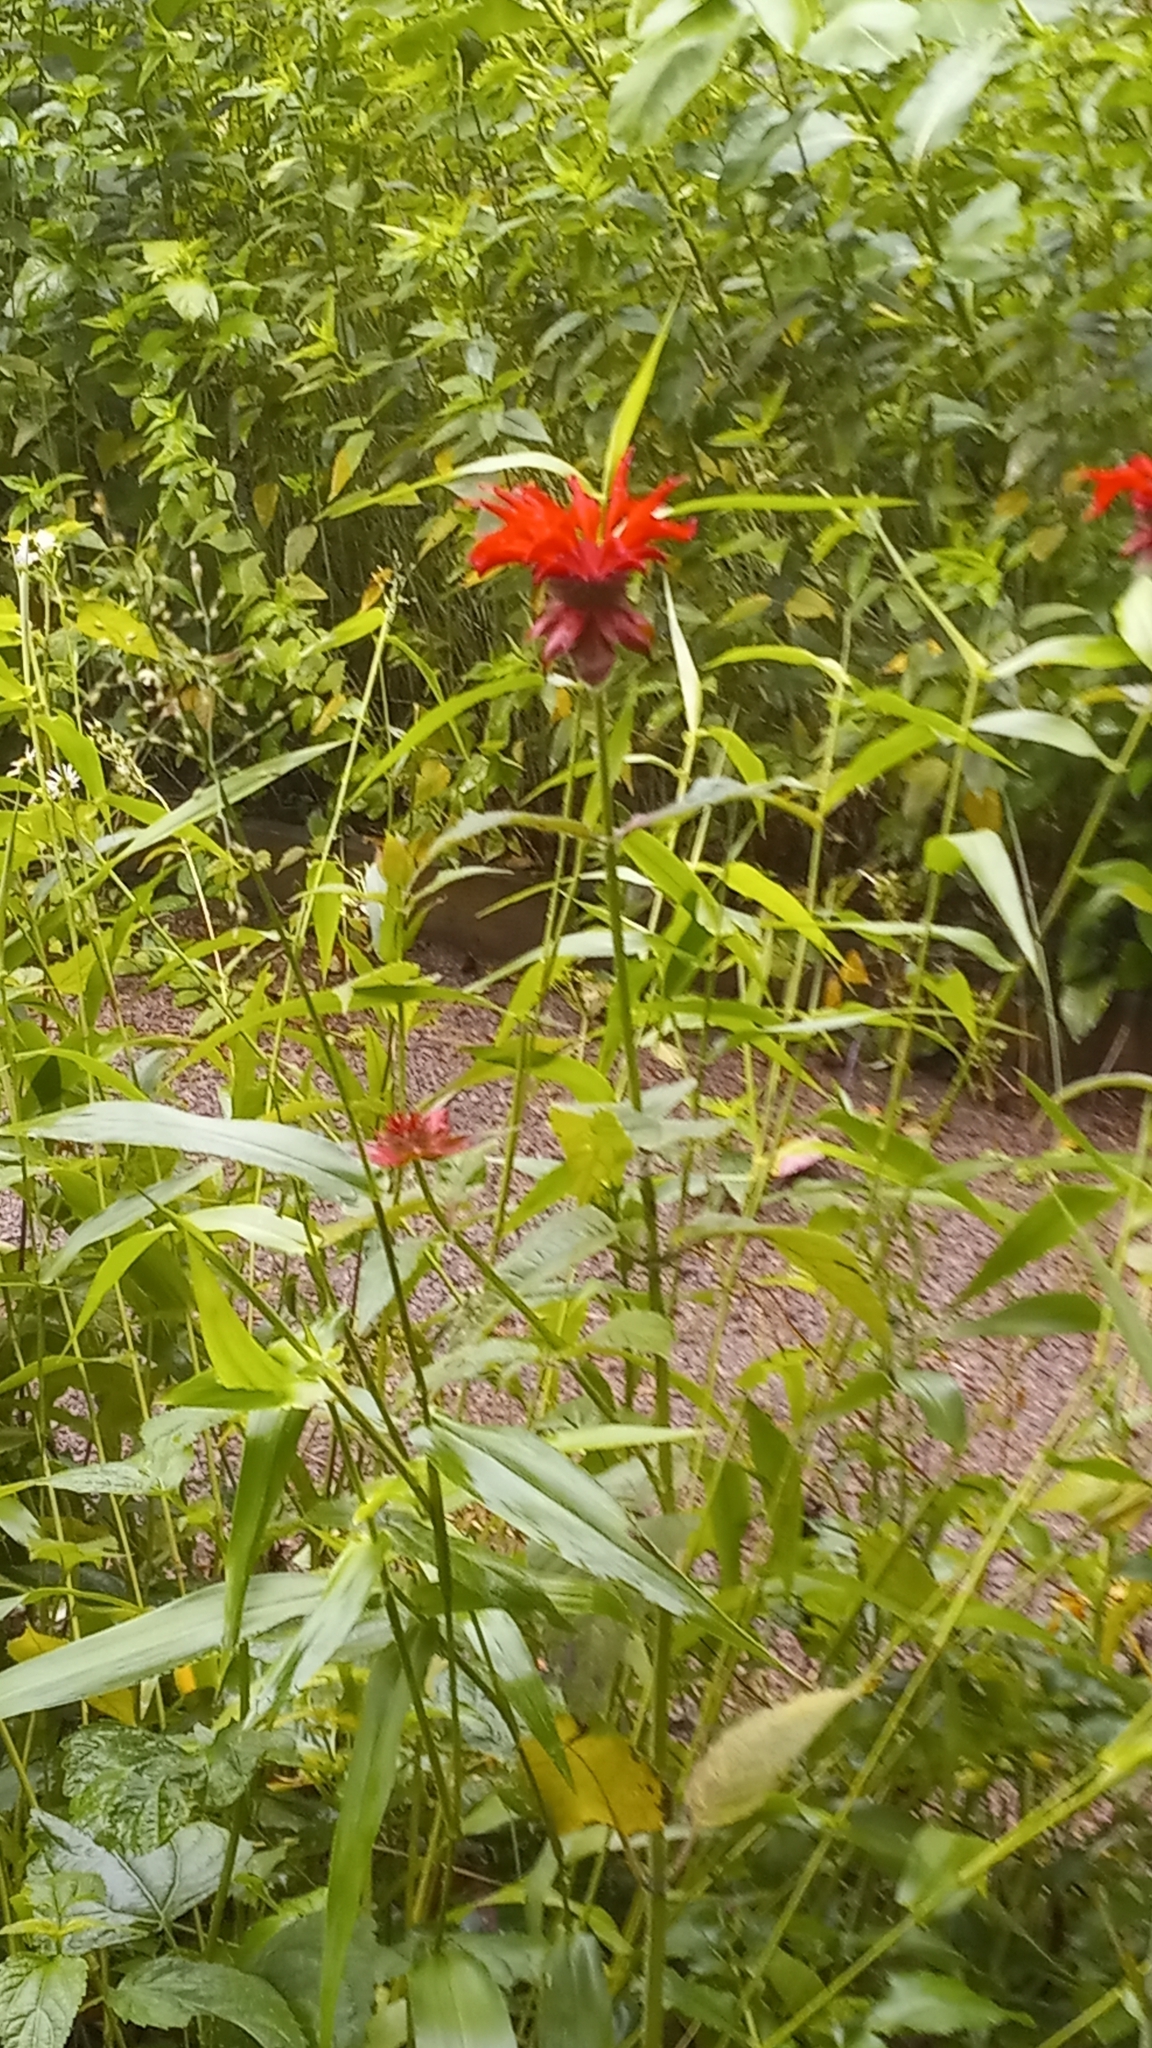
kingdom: Plantae
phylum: Tracheophyta
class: Magnoliopsida
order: Lamiales
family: Lamiaceae
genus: Monarda
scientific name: Monarda didyma
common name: Beebalm
